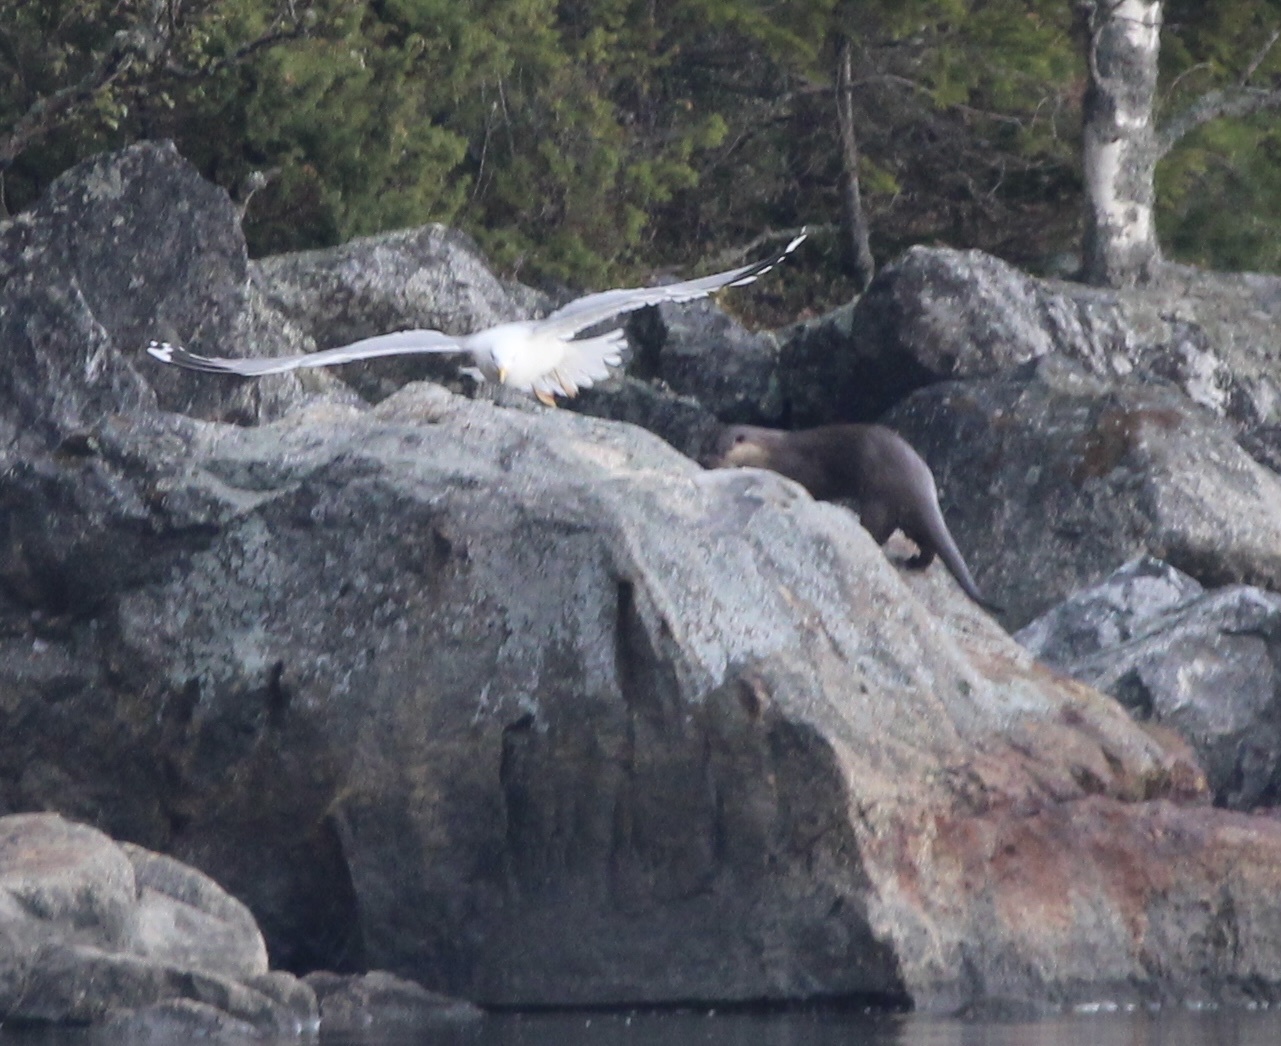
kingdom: Animalia
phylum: Chordata
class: Mammalia
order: Carnivora
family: Mustelidae
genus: Lutra
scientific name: Lutra lutra
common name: European otter
